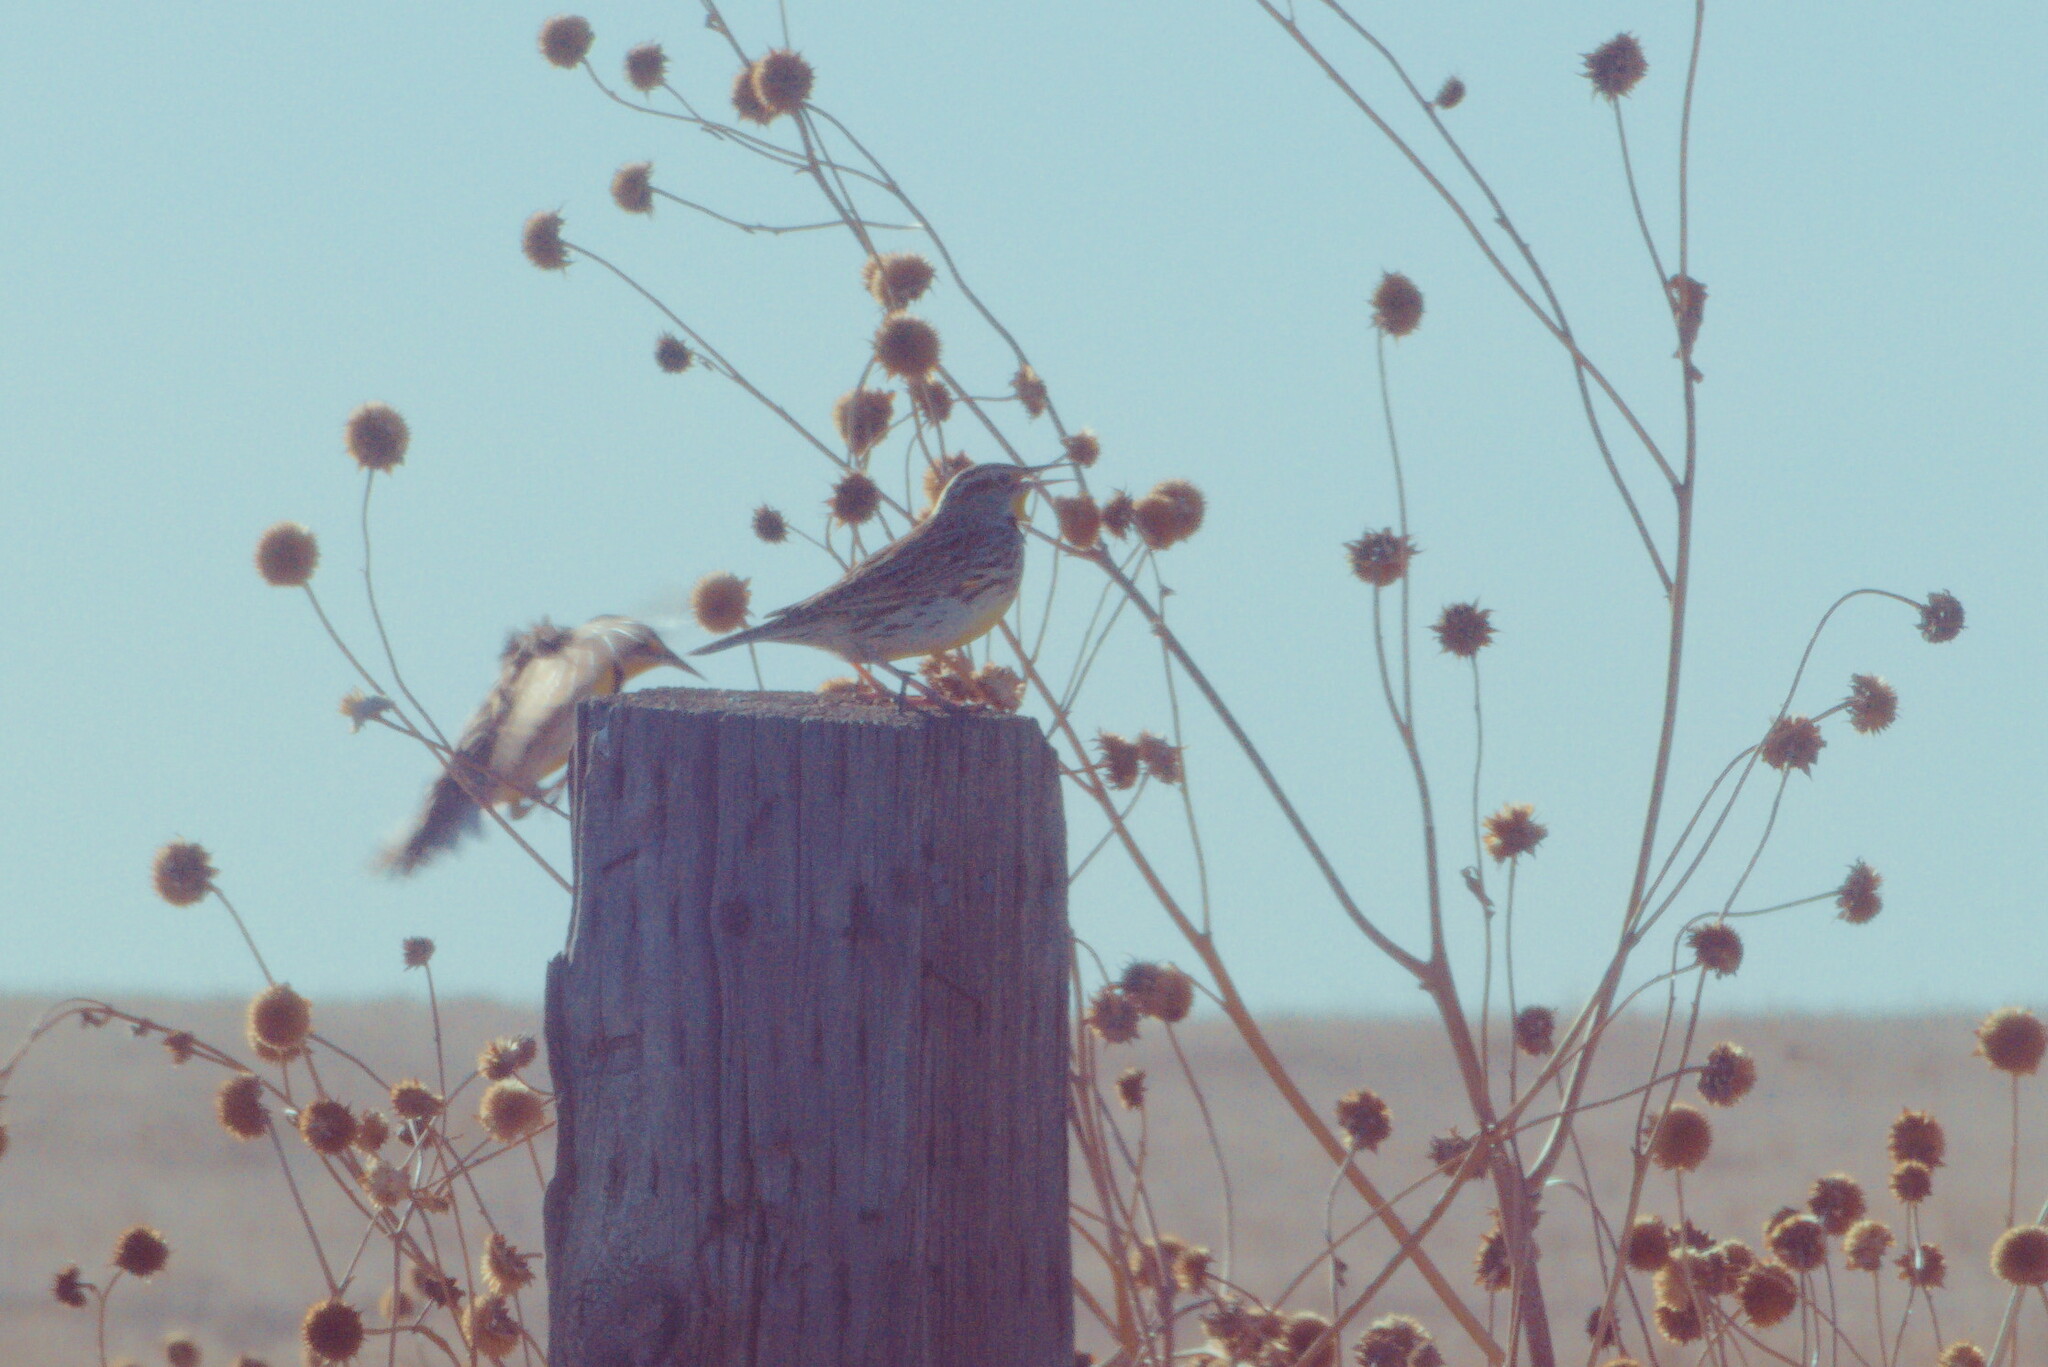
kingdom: Animalia
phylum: Chordata
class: Aves
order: Passeriformes
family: Icteridae
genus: Sturnella
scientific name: Sturnella neglecta
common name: Western meadowlark
